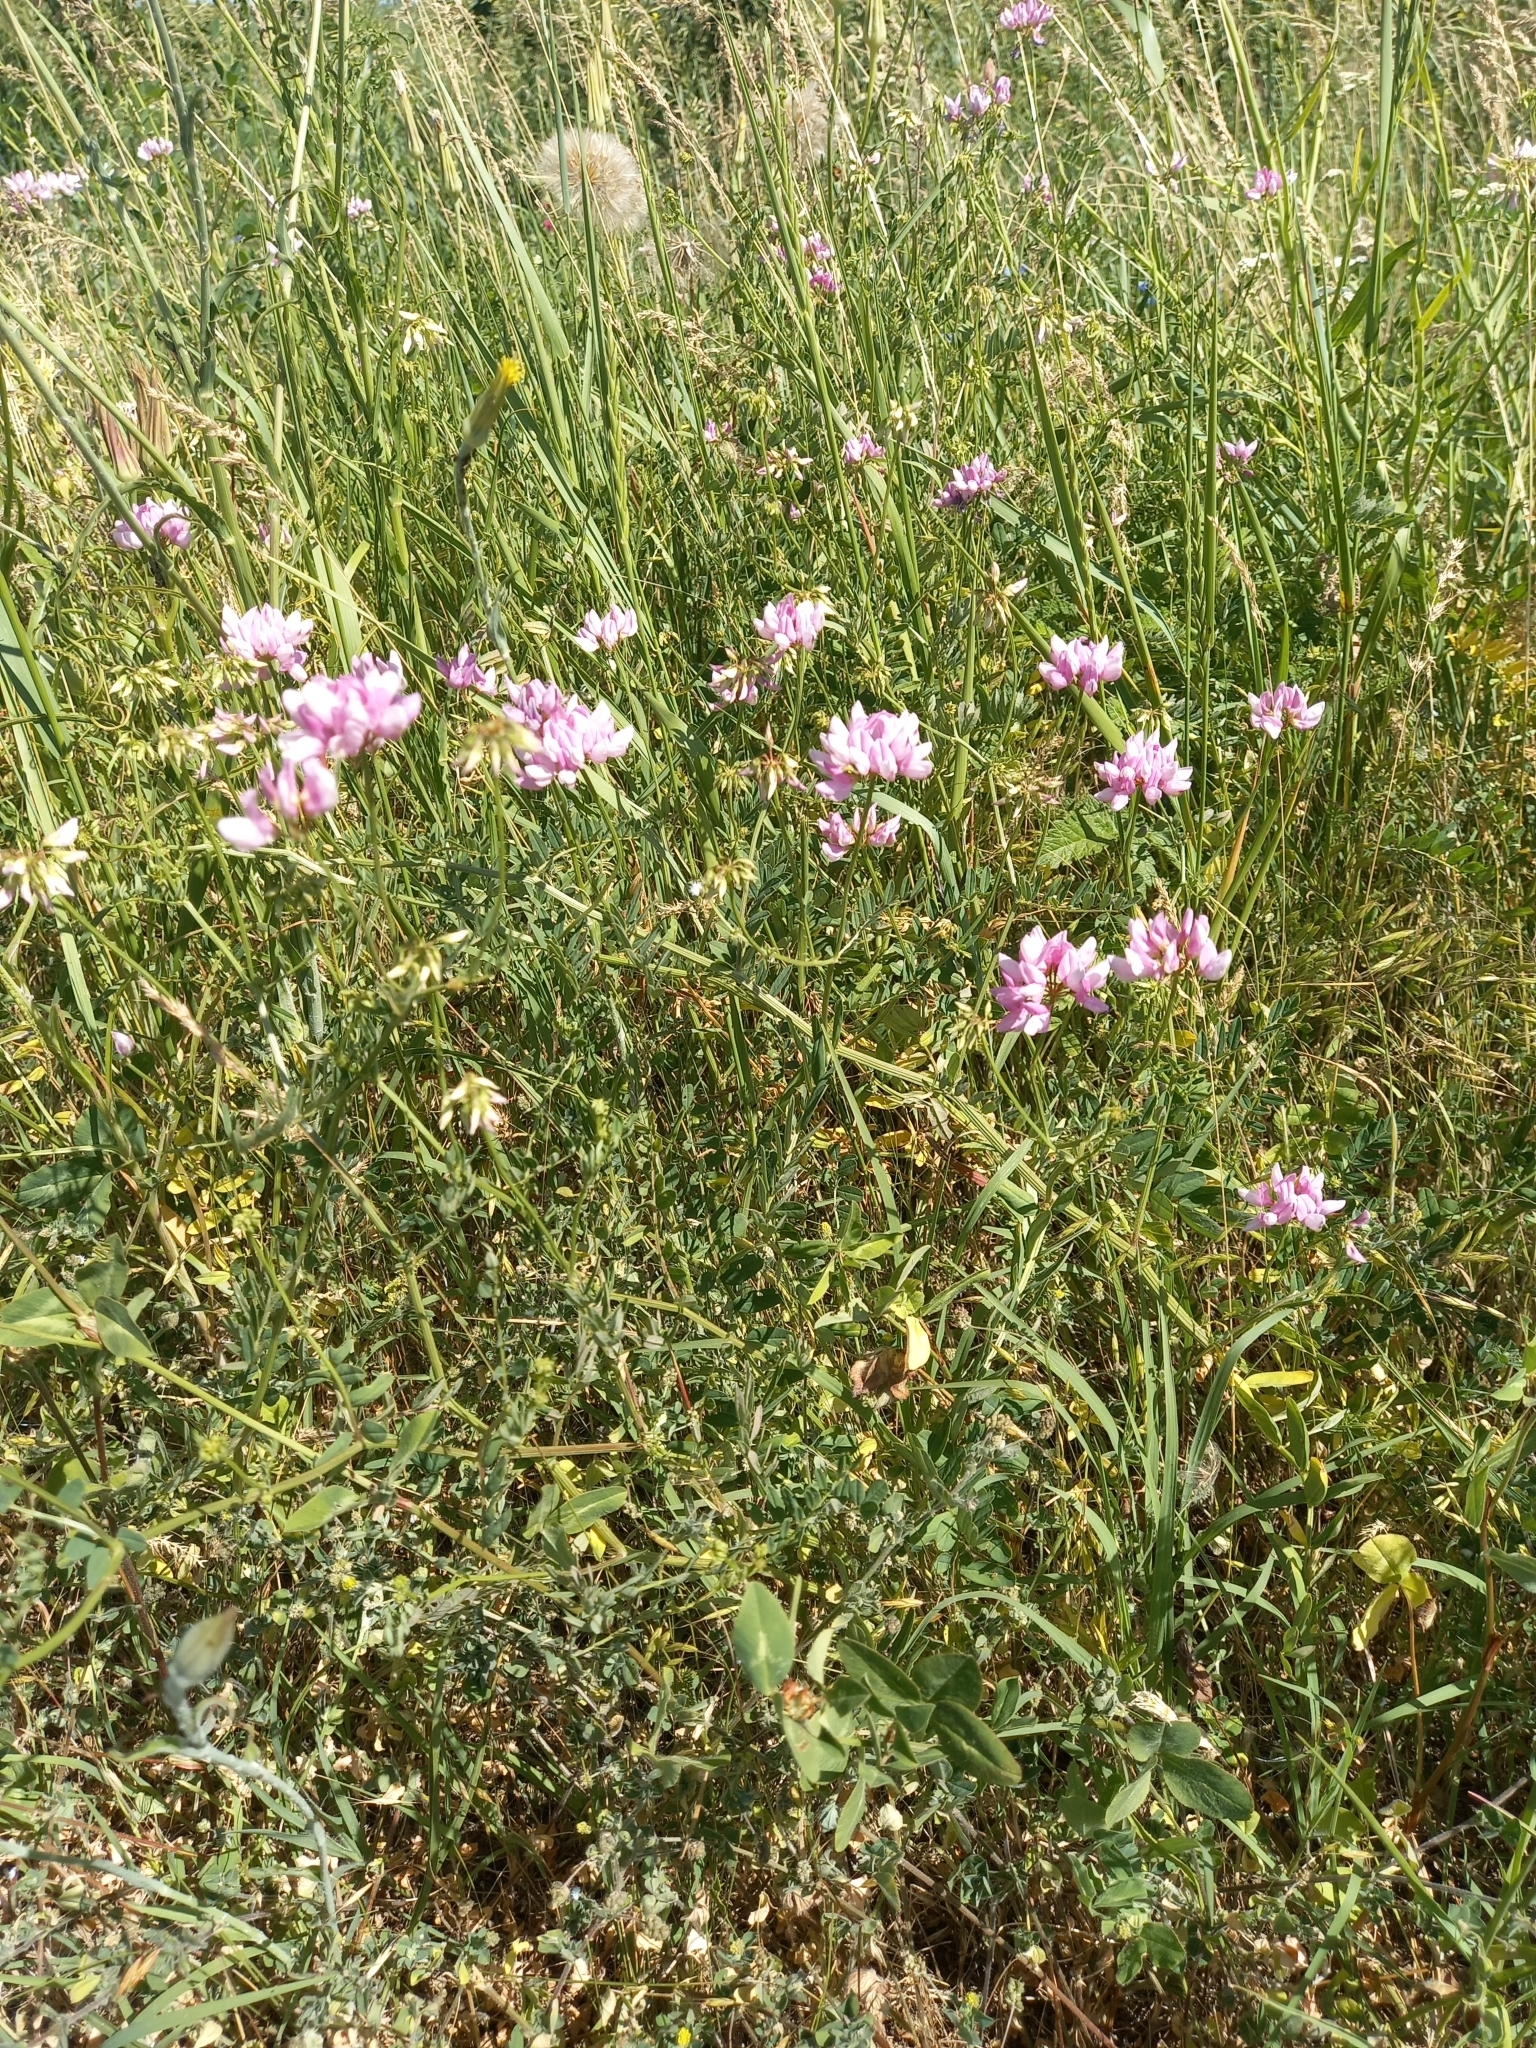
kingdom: Plantae
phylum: Tracheophyta
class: Magnoliopsida
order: Fabales
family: Fabaceae
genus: Coronilla
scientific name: Coronilla varia
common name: Crownvetch
